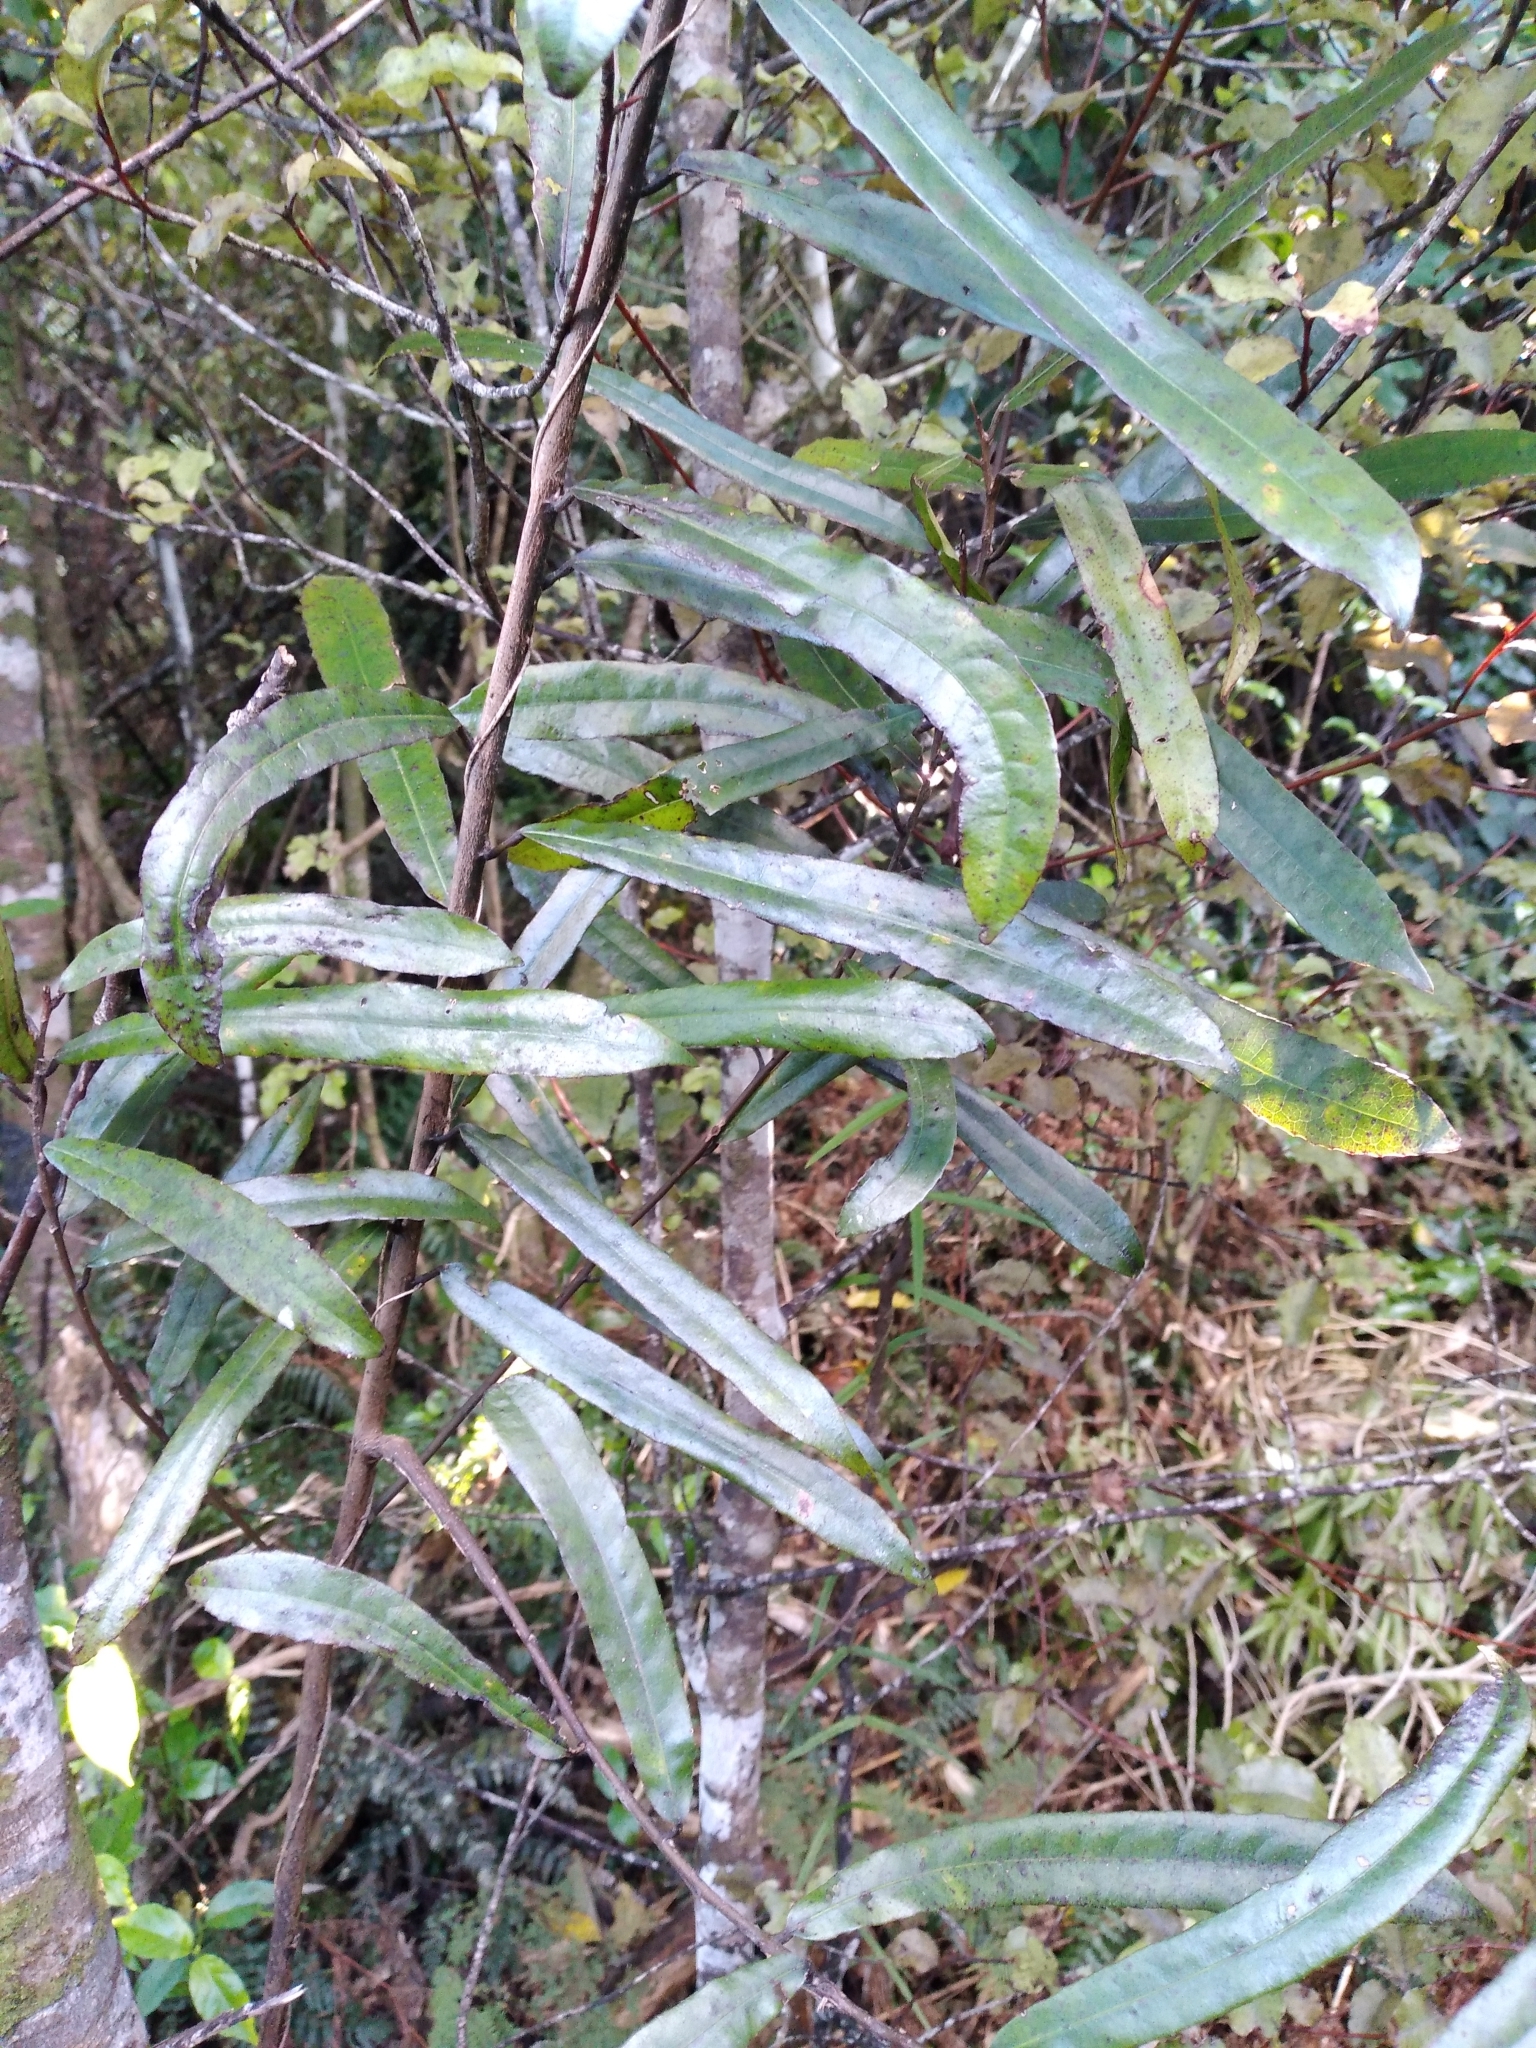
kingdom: Plantae
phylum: Tracheophyta
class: Magnoliopsida
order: Oxalidales
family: Elaeocarpaceae
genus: Elaeocarpus
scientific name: Elaeocarpus dentatus
